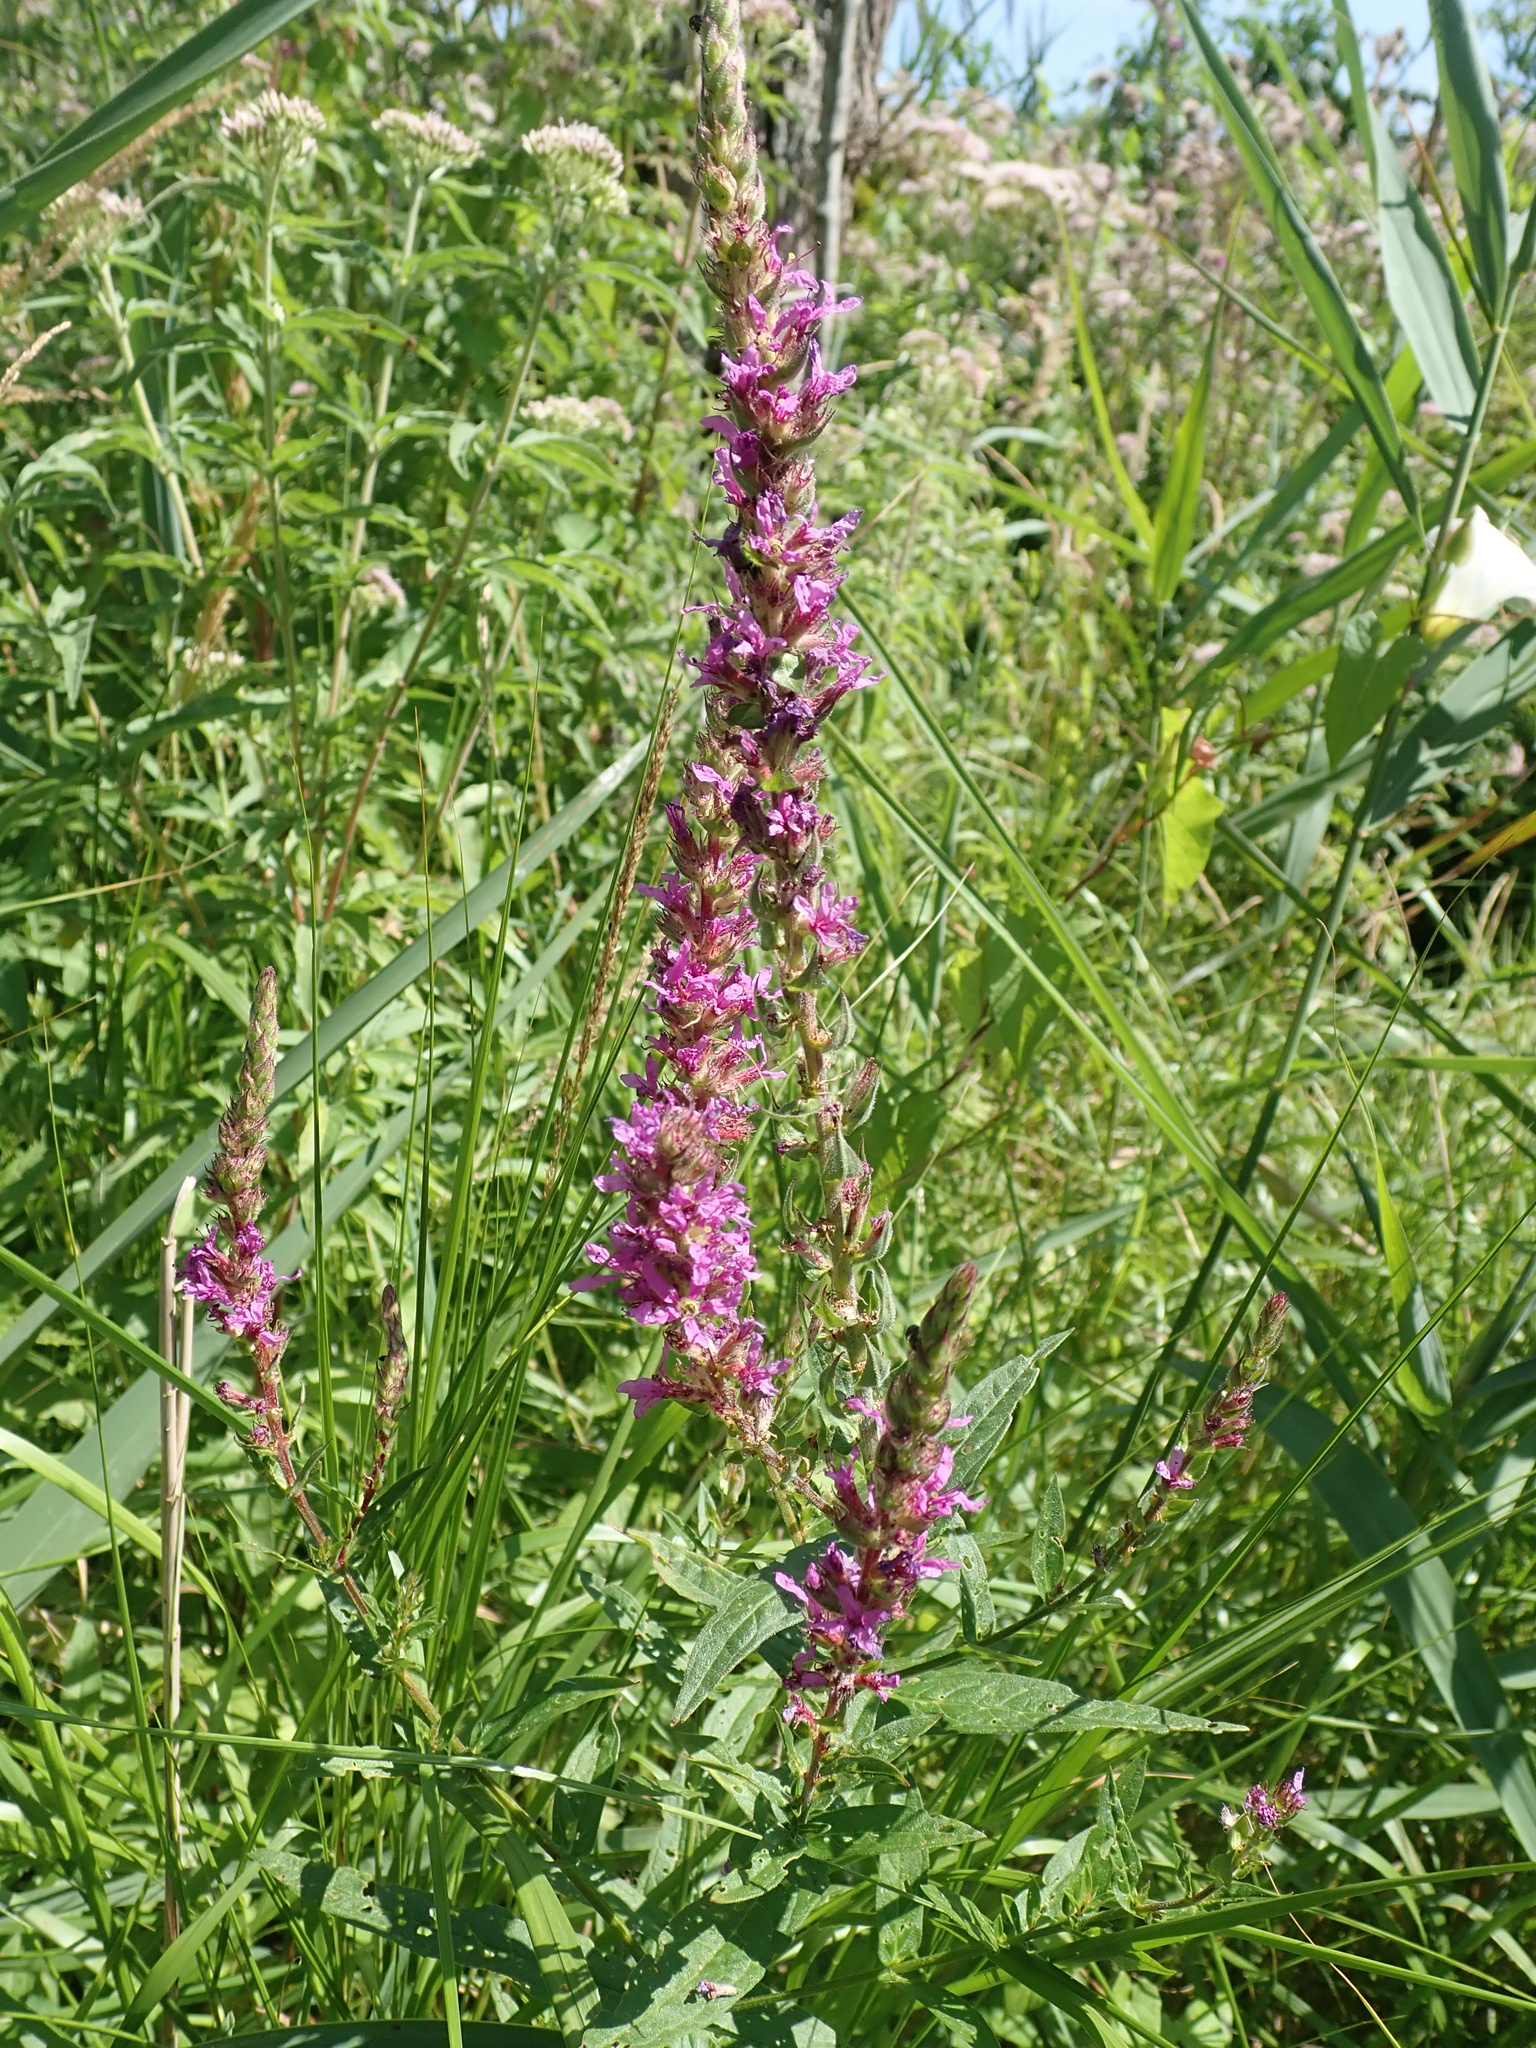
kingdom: Plantae
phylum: Tracheophyta
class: Magnoliopsida
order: Myrtales
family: Lythraceae
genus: Lythrum
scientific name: Lythrum salicaria
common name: Purple loosestrife
